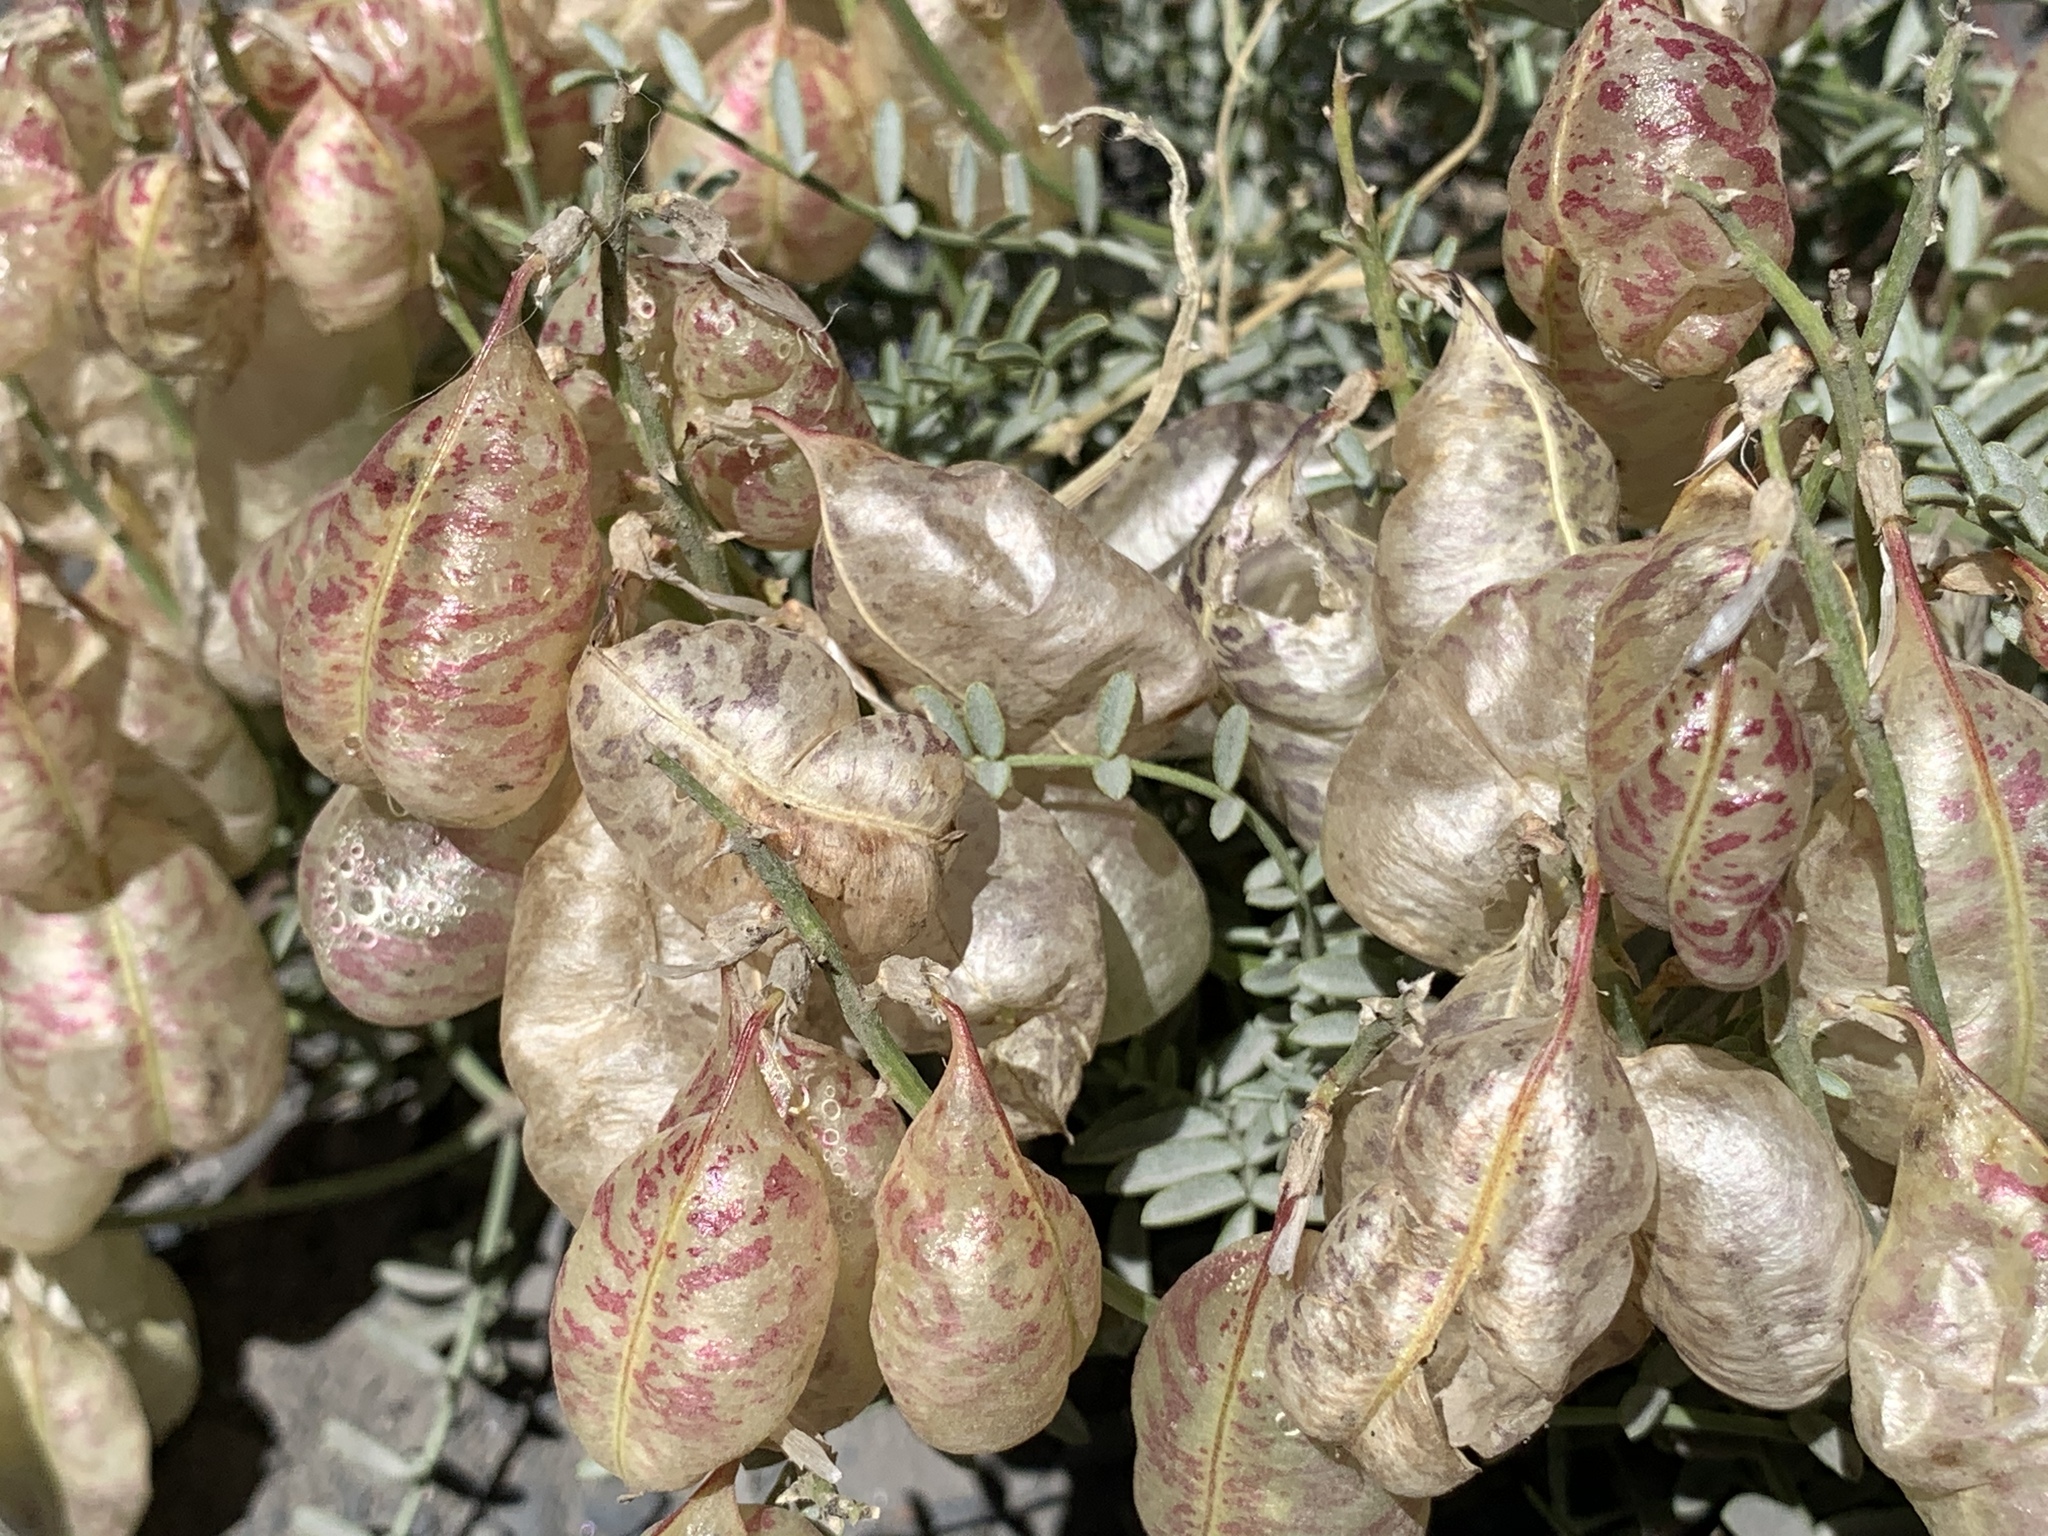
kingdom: Plantae
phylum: Tracheophyta
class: Magnoliopsida
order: Fabales
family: Fabaceae
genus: Astragalus
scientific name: Astragalus whitneyi
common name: Balloonpod milkvetch
